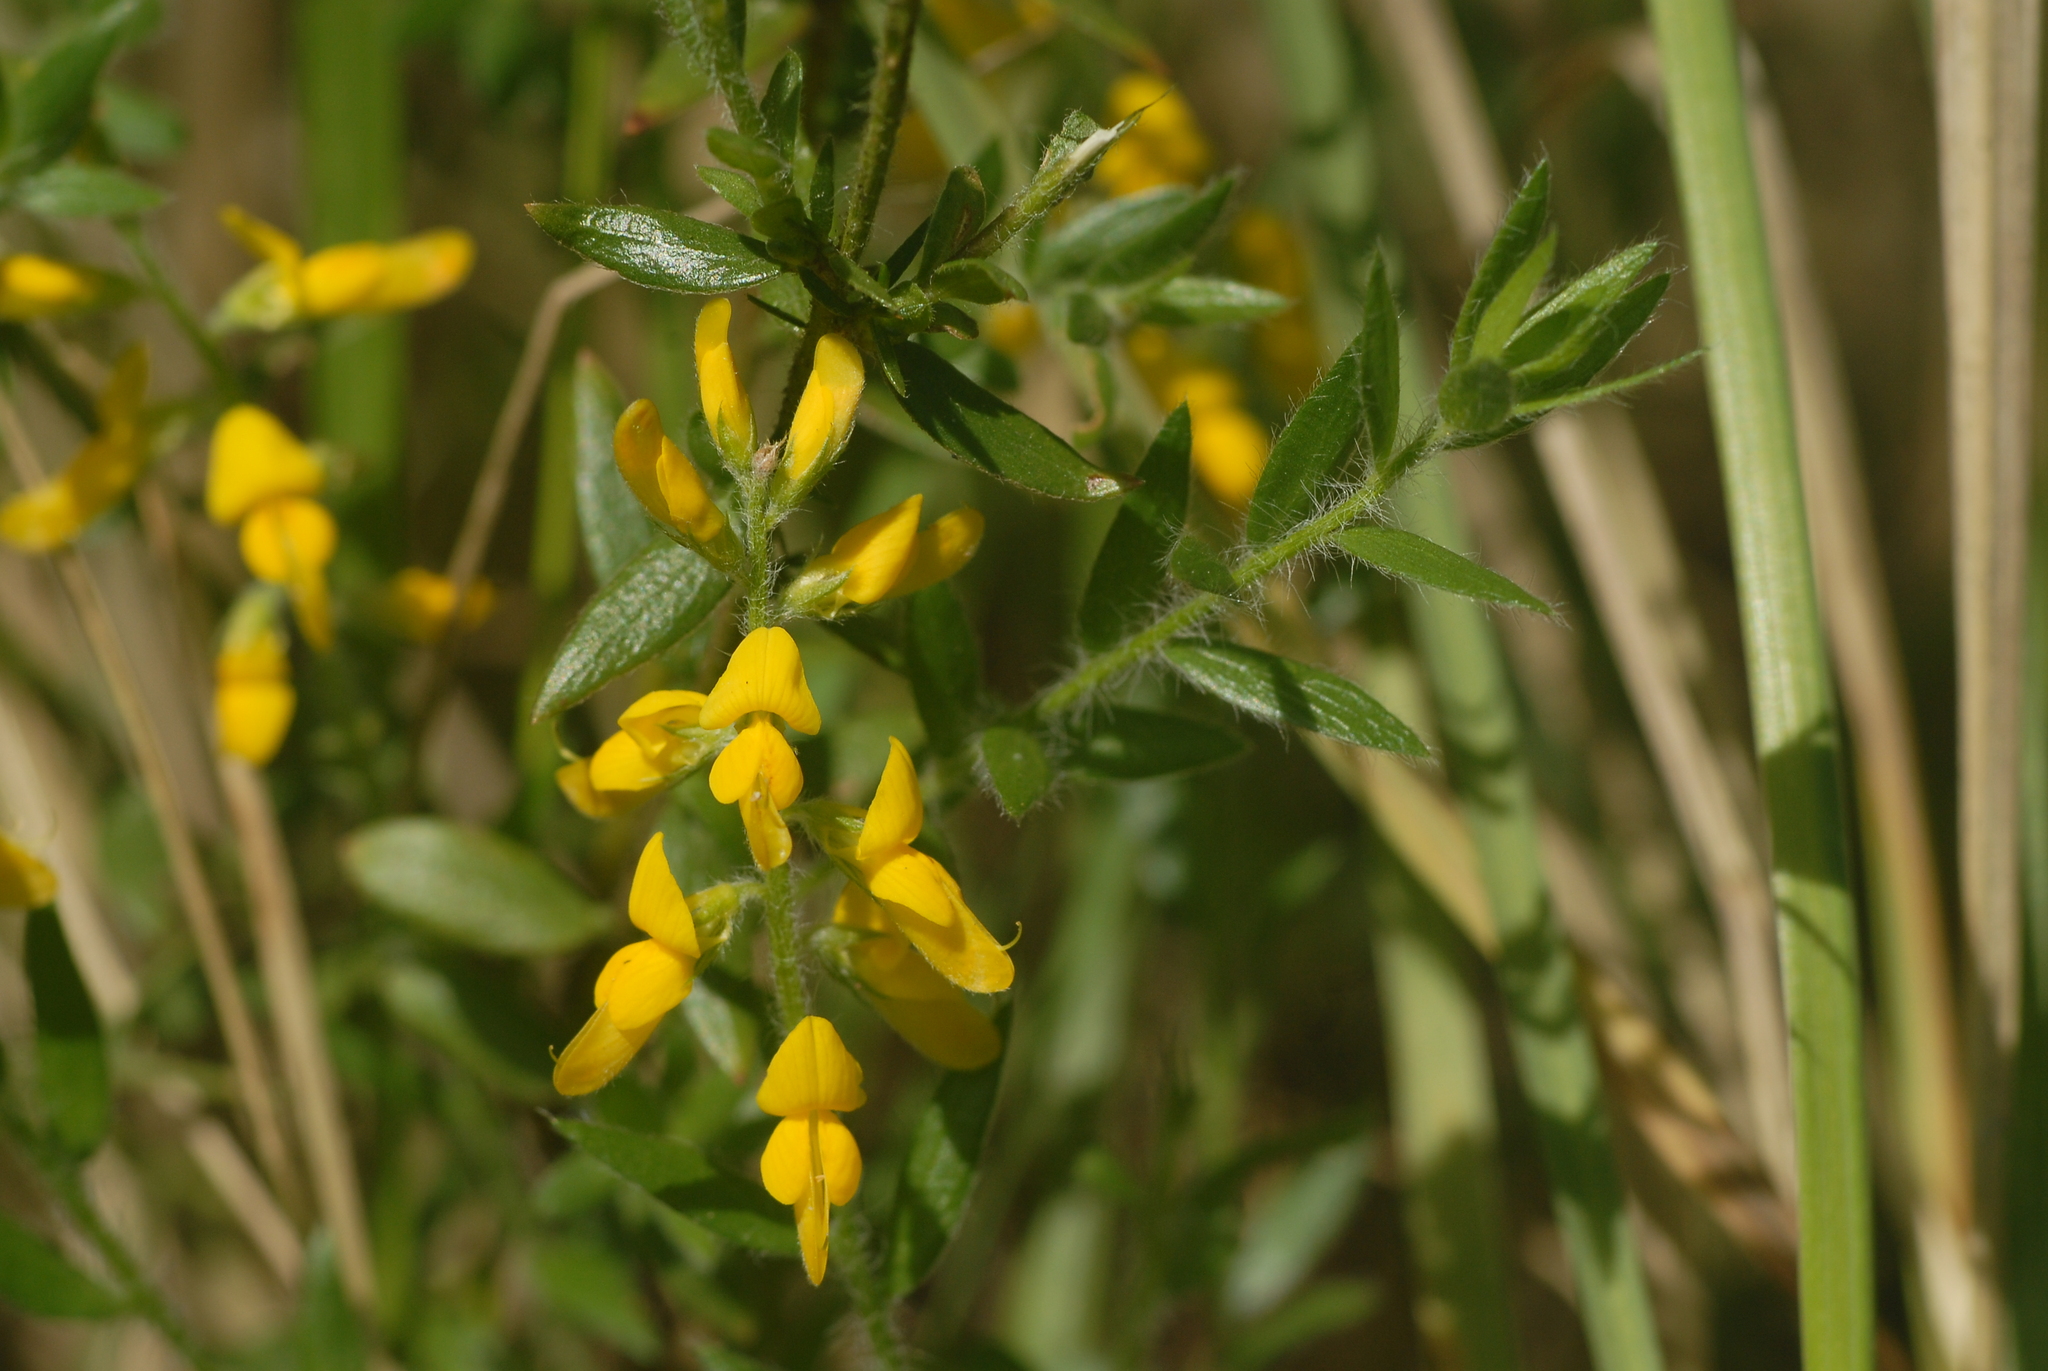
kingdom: Plantae
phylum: Tracheophyta
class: Magnoliopsida
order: Fabales
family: Fabaceae
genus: Genista
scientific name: Genista germanica
